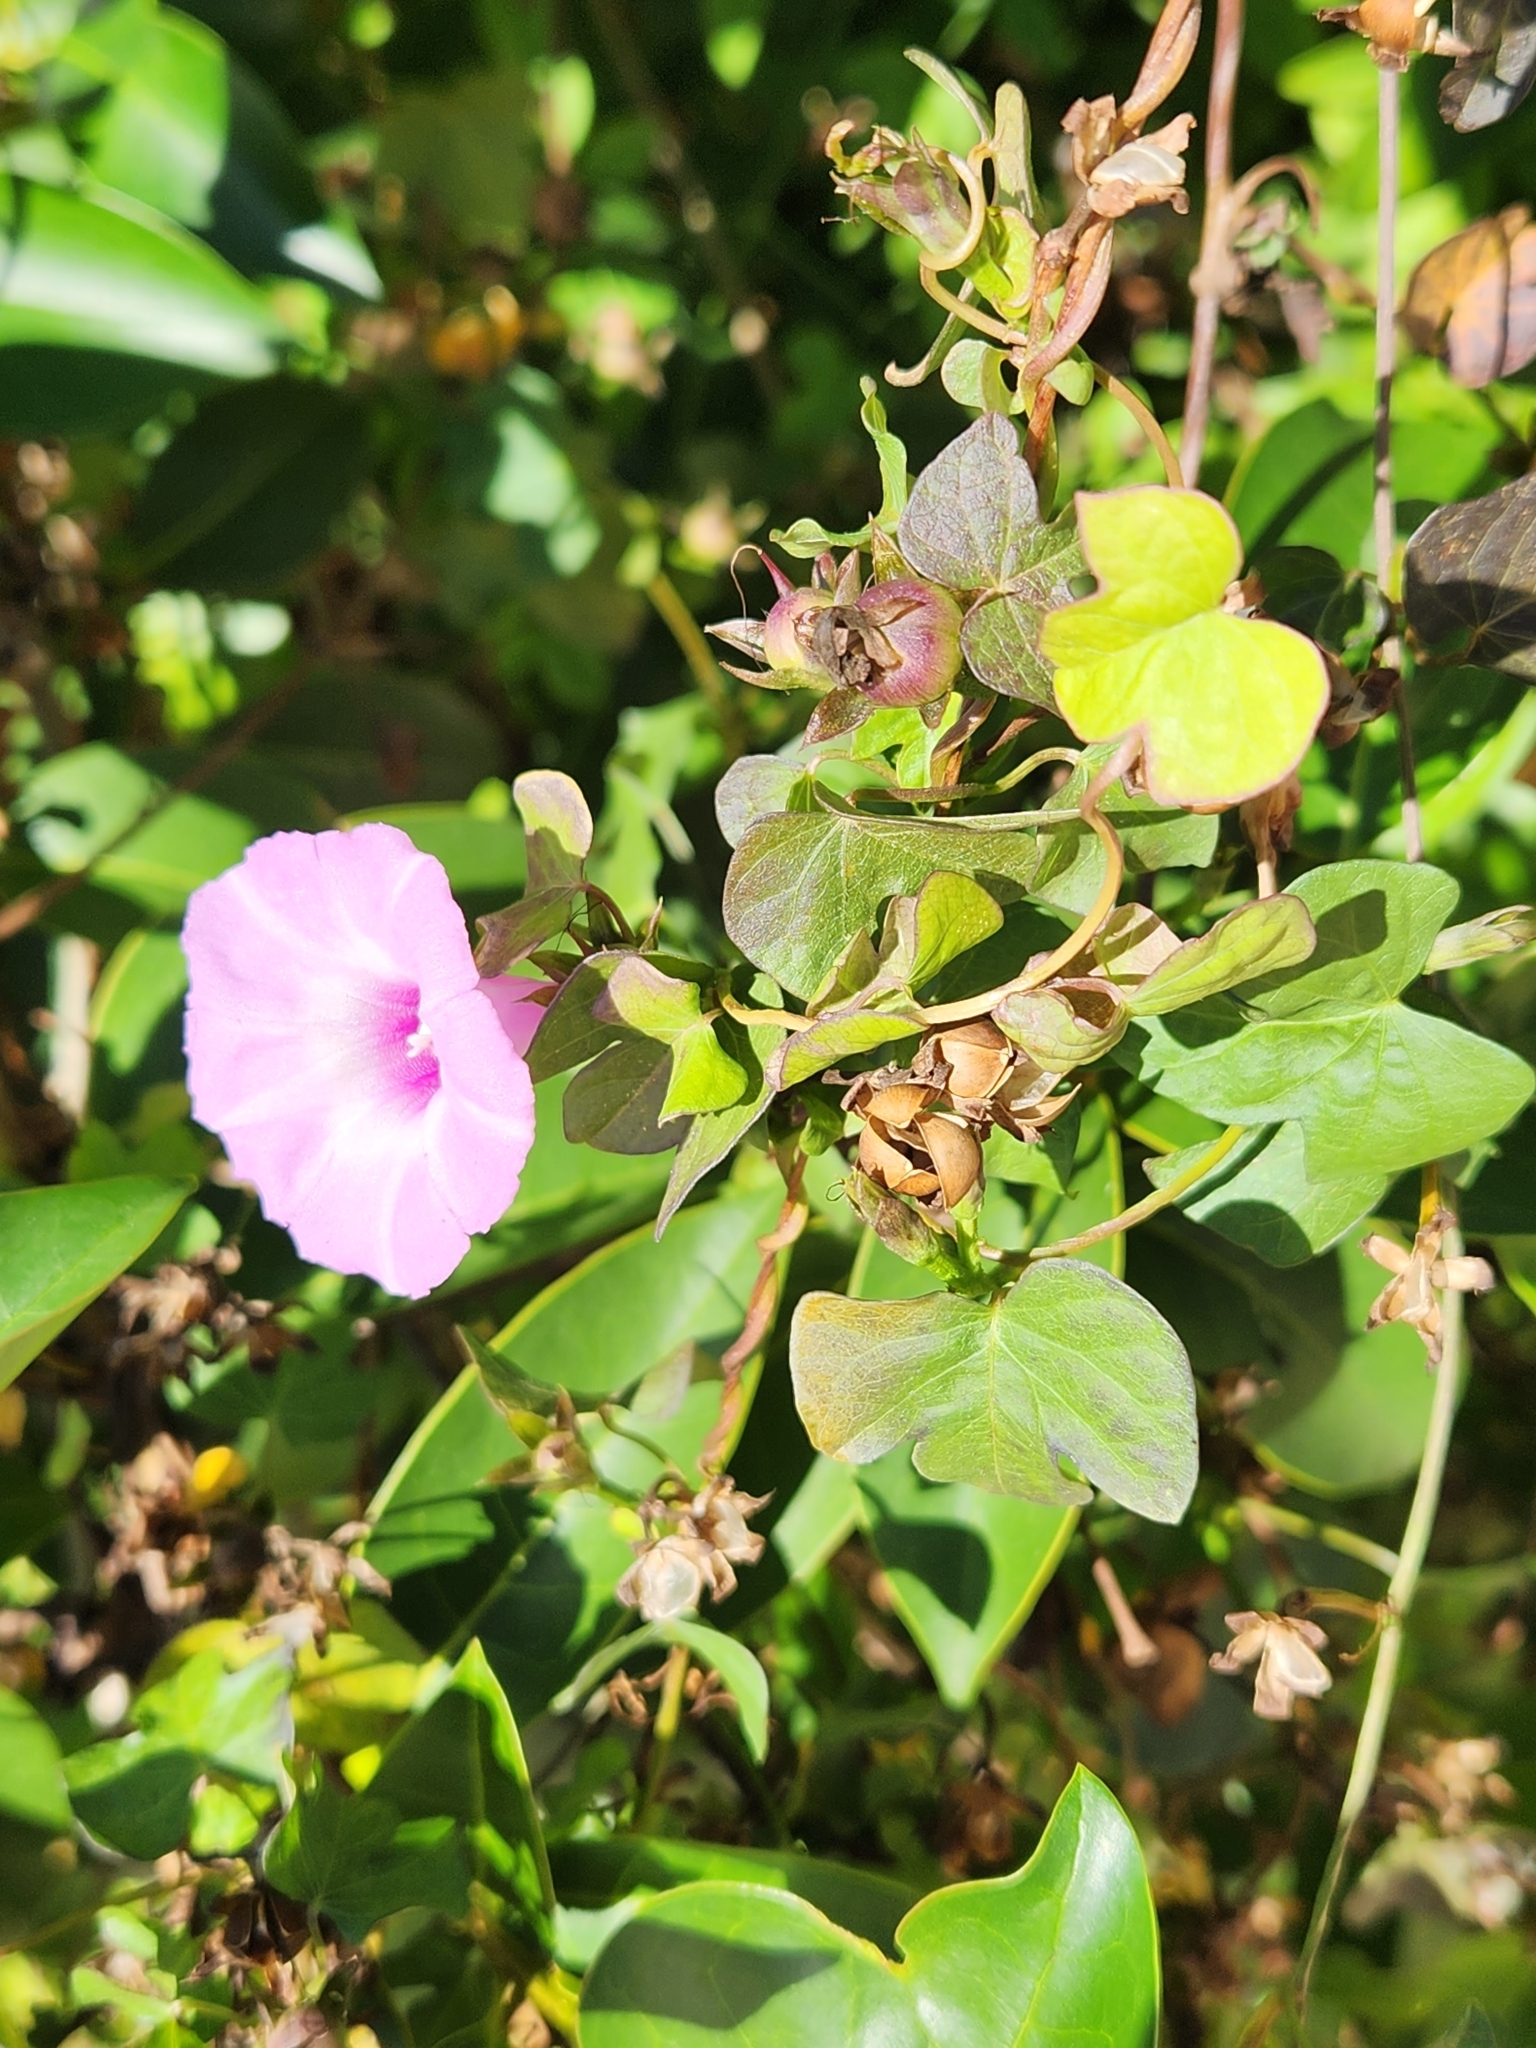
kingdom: Plantae
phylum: Tracheophyta
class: Magnoliopsida
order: Solanales
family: Convolvulaceae
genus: Ipomoea
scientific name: Ipomoea cordatotriloba
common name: Cotton morning glory
